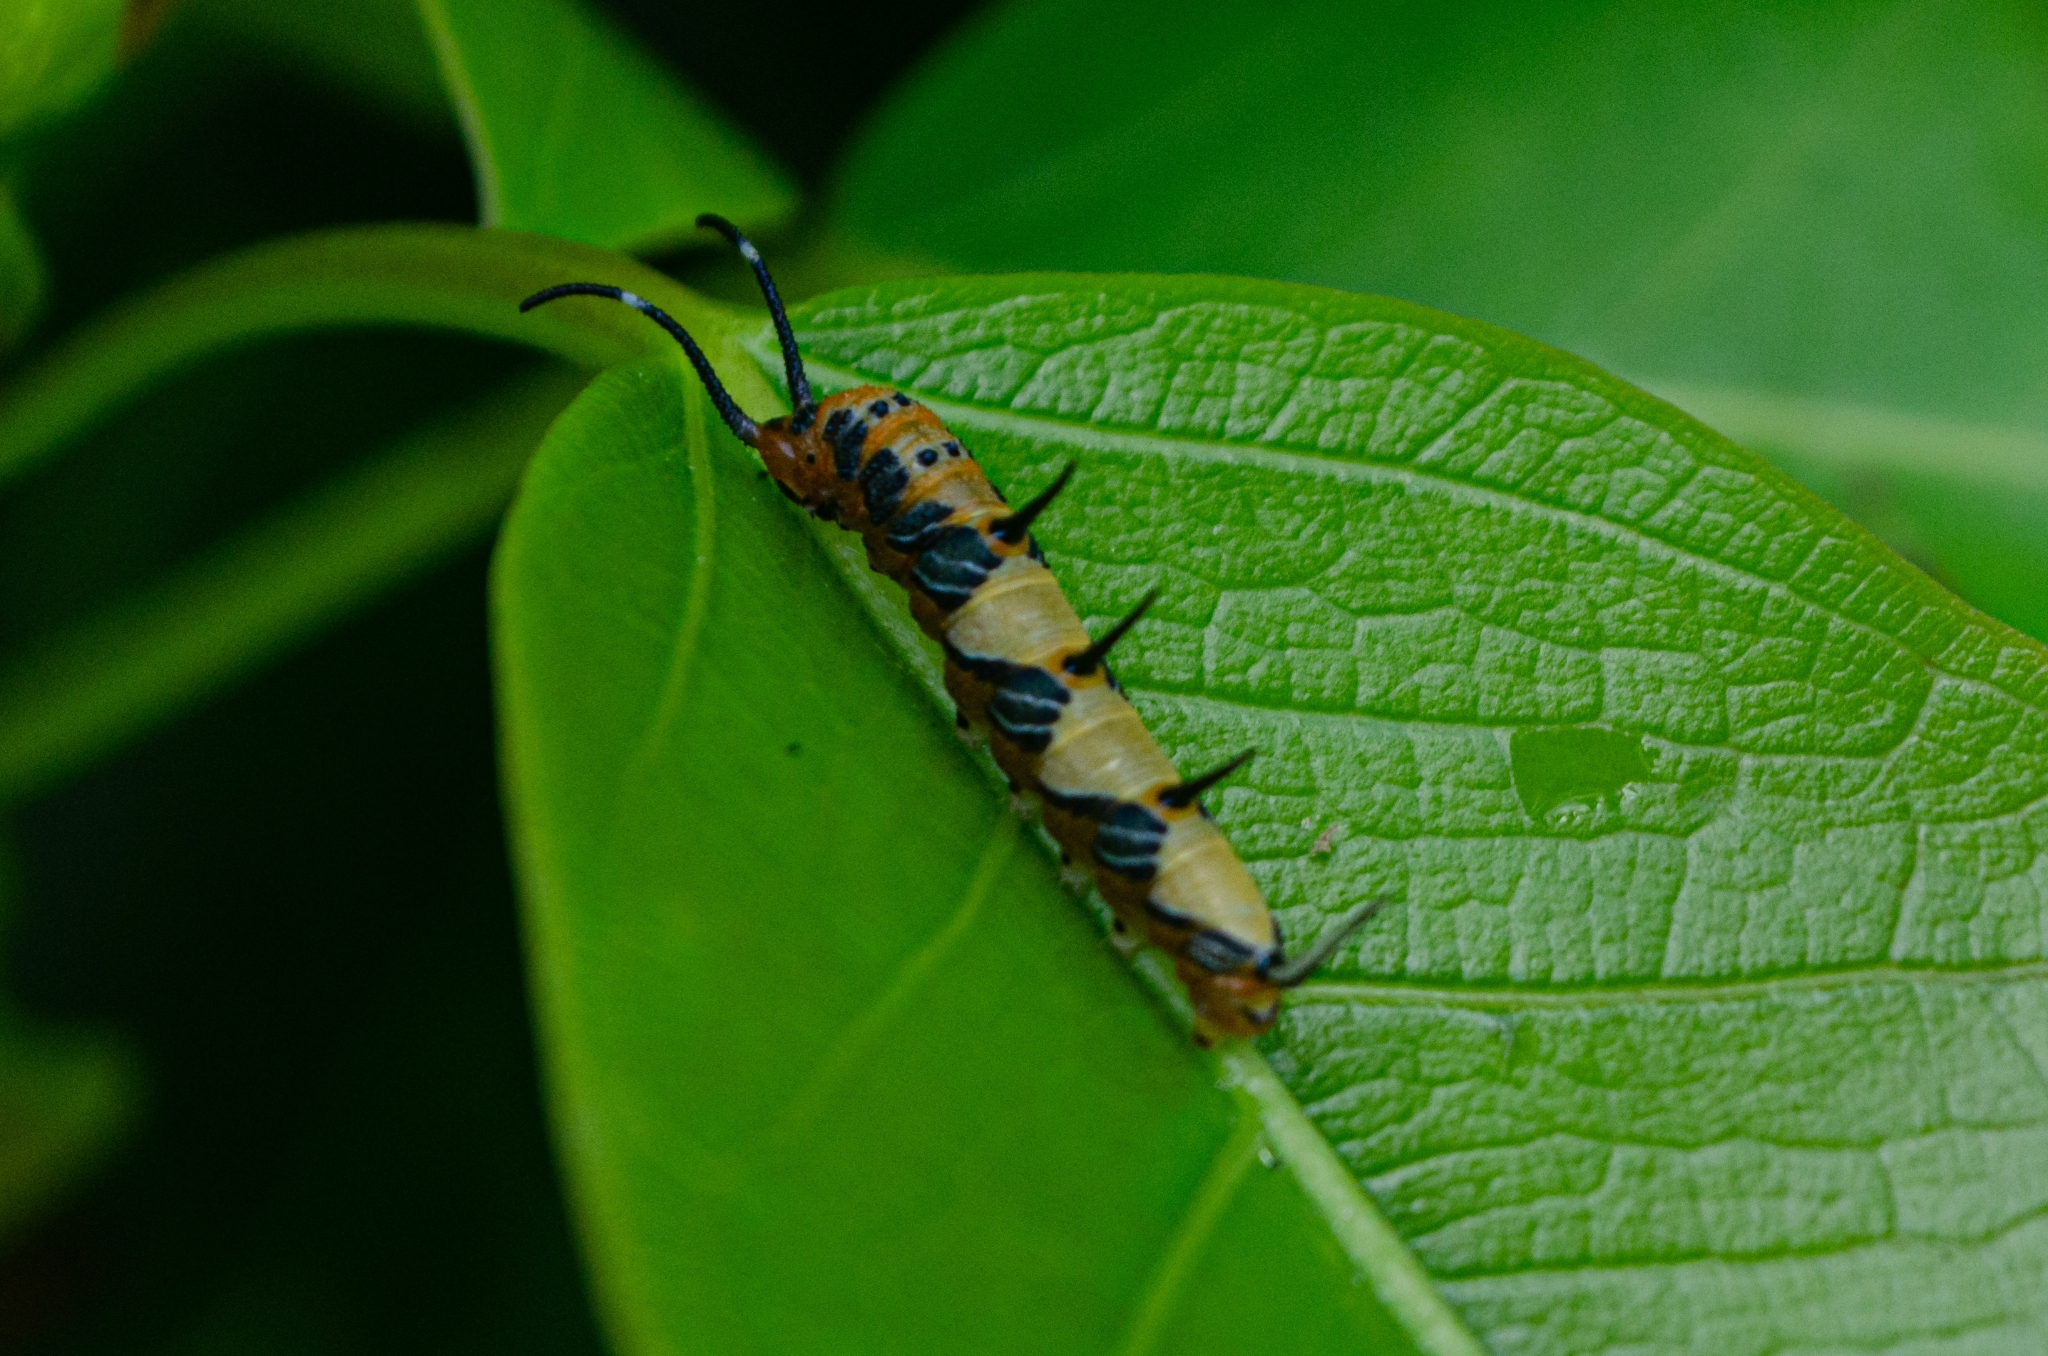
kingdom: Animalia
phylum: Arthropoda
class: Insecta
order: Lepidoptera
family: Nymphalidae
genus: Marpesia
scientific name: Marpesia petreus
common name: Red dagger wing
